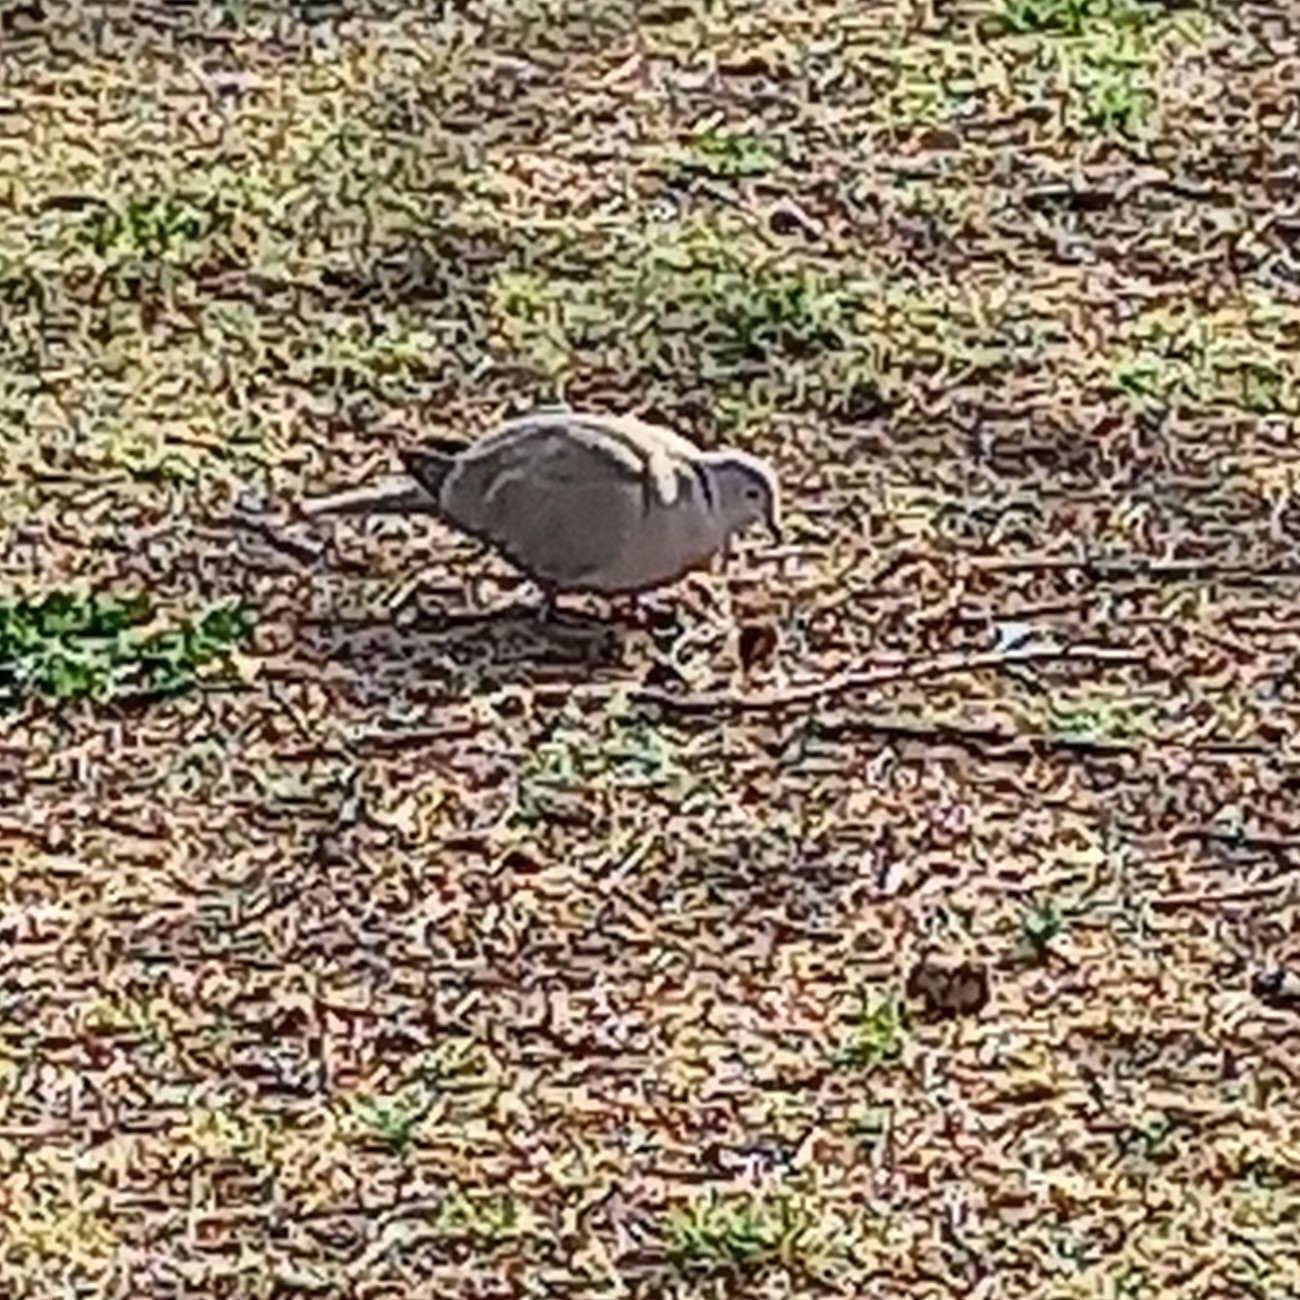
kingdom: Animalia
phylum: Chordata
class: Aves
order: Columbiformes
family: Columbidae
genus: Streptopelia
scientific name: Streptopelia decaocto
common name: Eurasian collared dove
